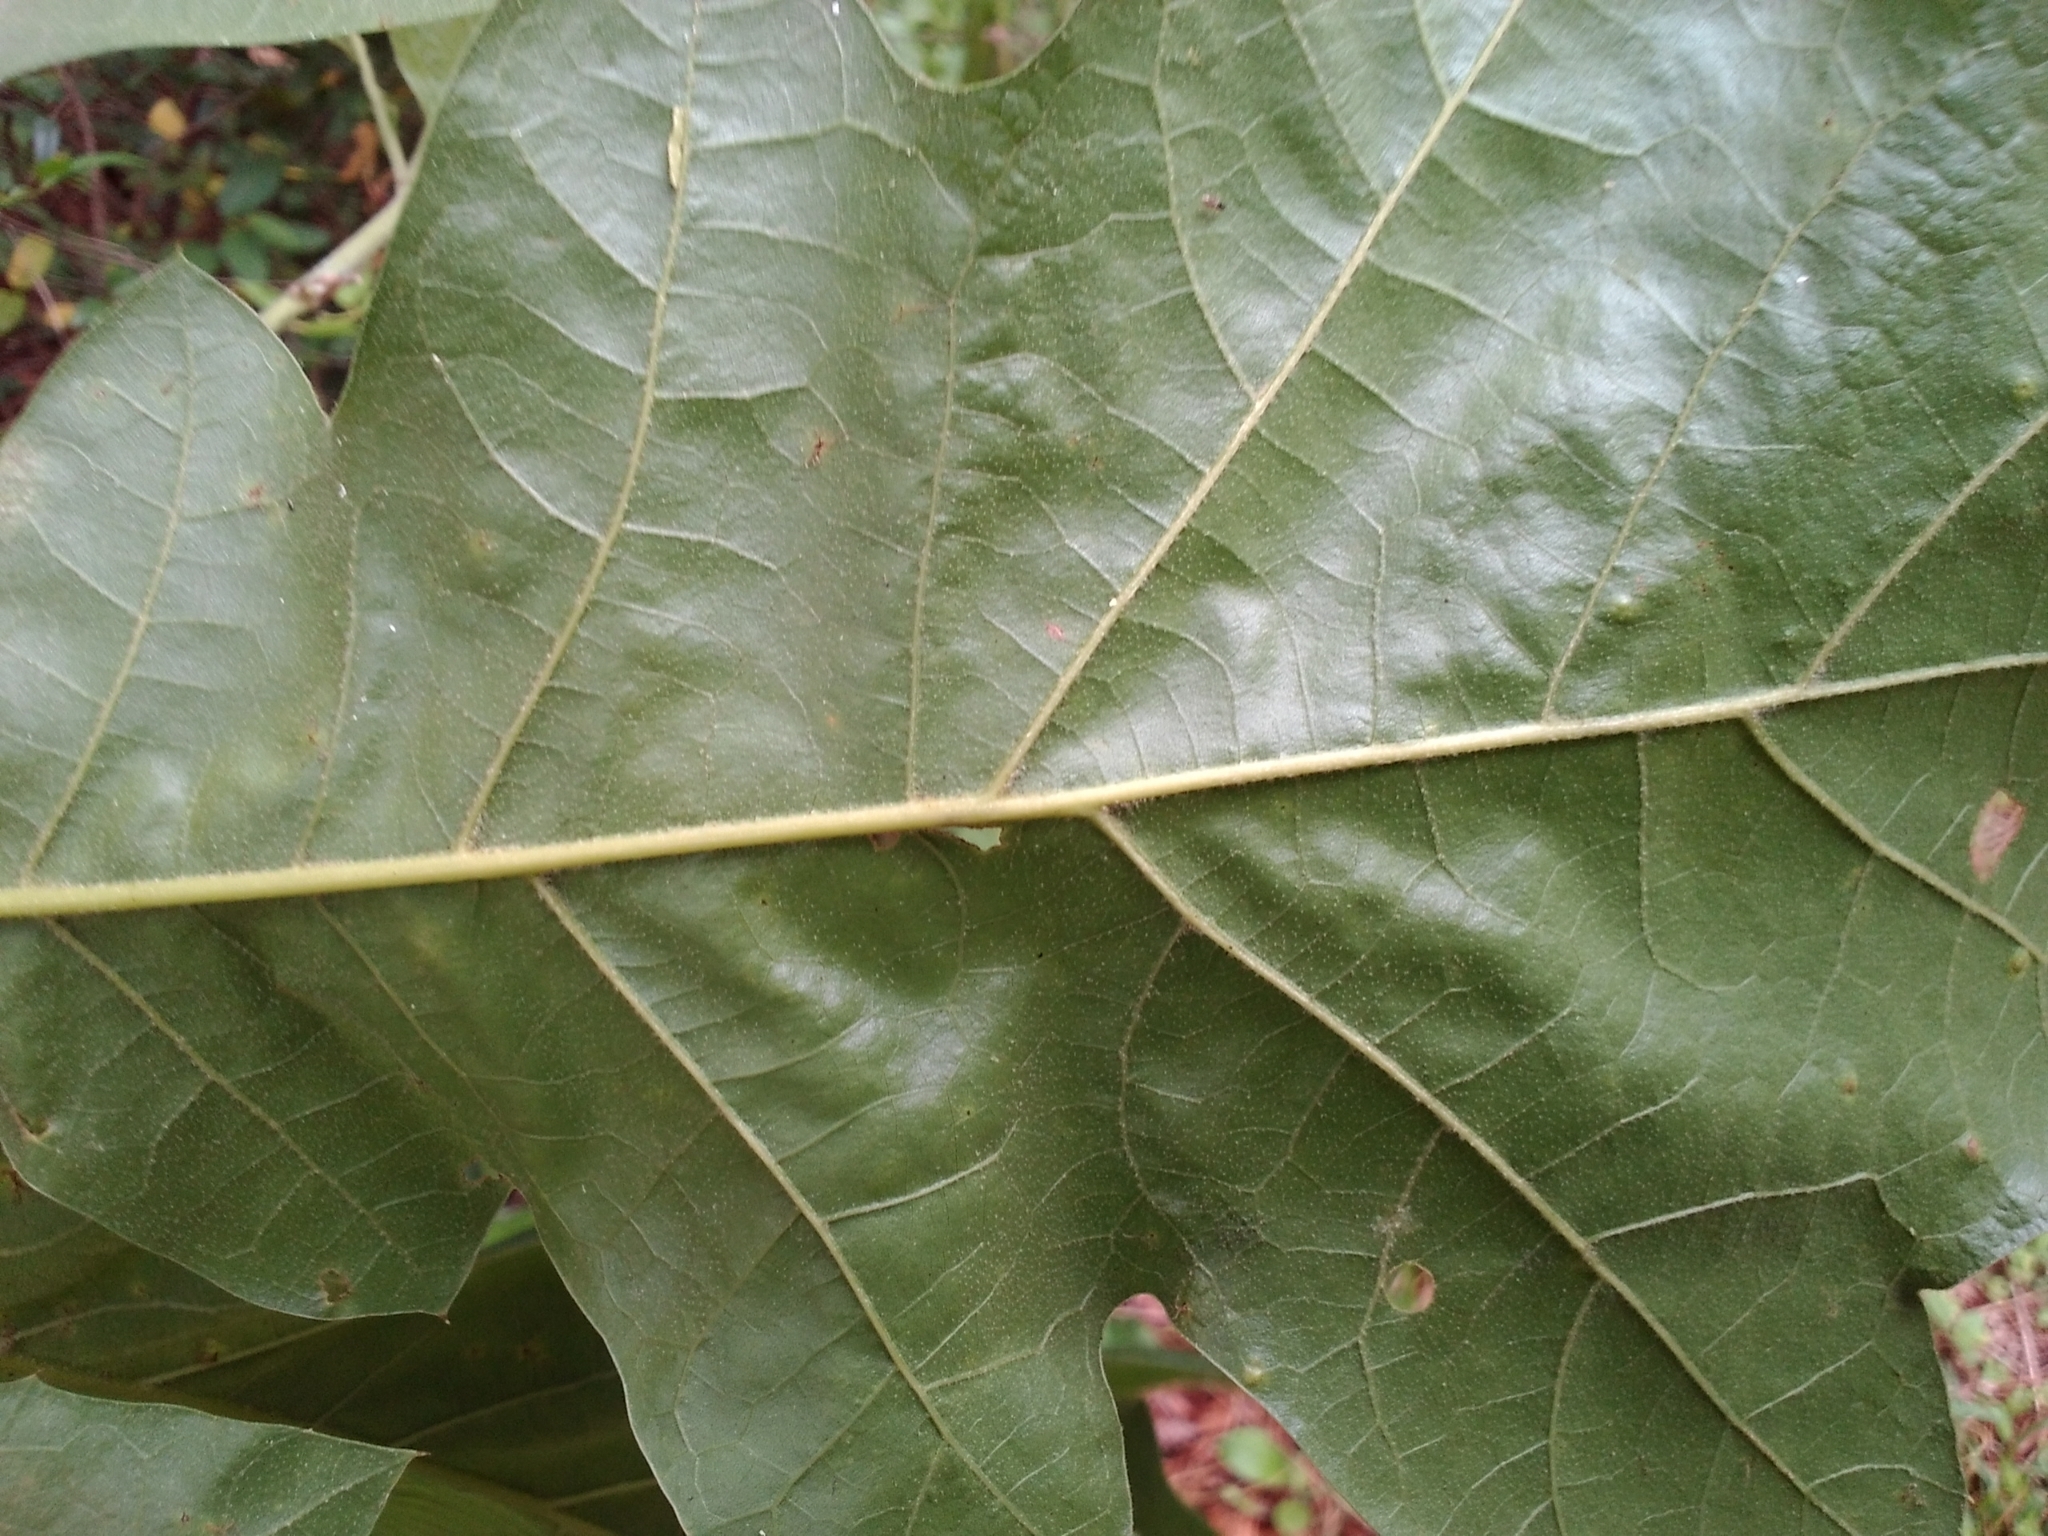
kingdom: Plantae
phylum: Tracheophyta
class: Magnoliopsida
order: Fagales
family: Fagaceae
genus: Quercus
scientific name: Quercus velutina
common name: Black oak
